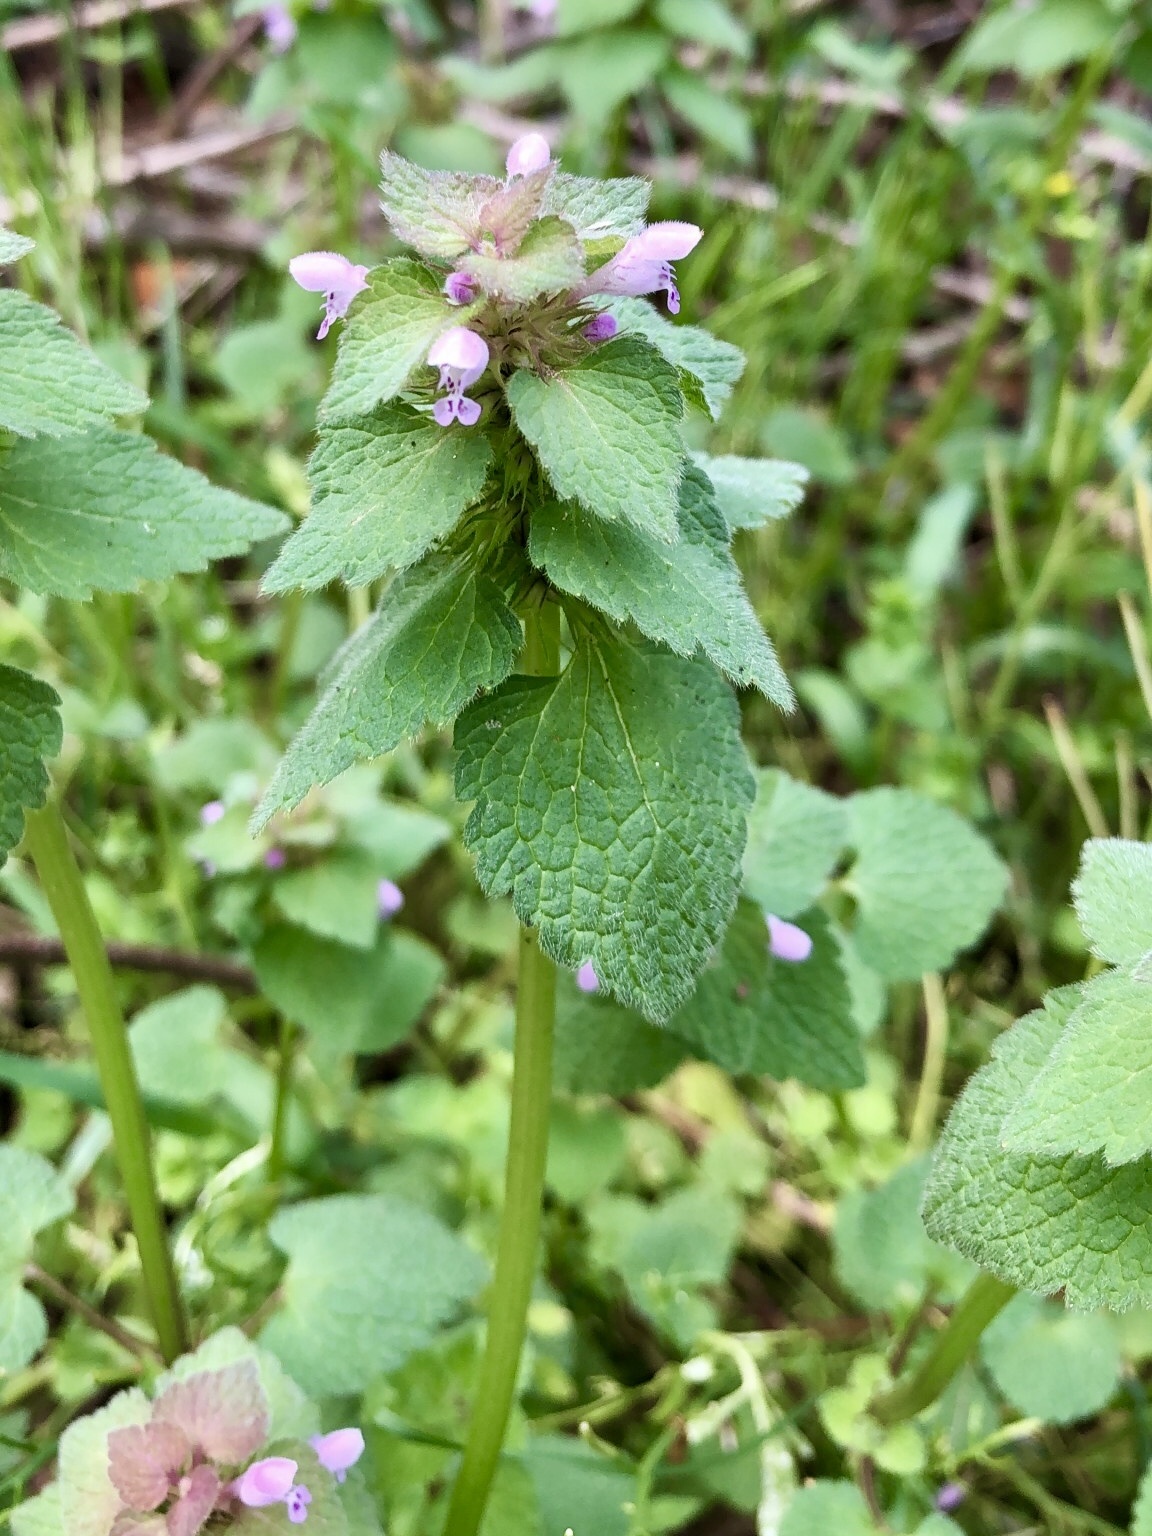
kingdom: Plantae
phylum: Tracheophyta
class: Magnoliopsida
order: Lamiales
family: Lamiaceae
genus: Lamium
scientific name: Lamium purpureum
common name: Red dead-nettle
